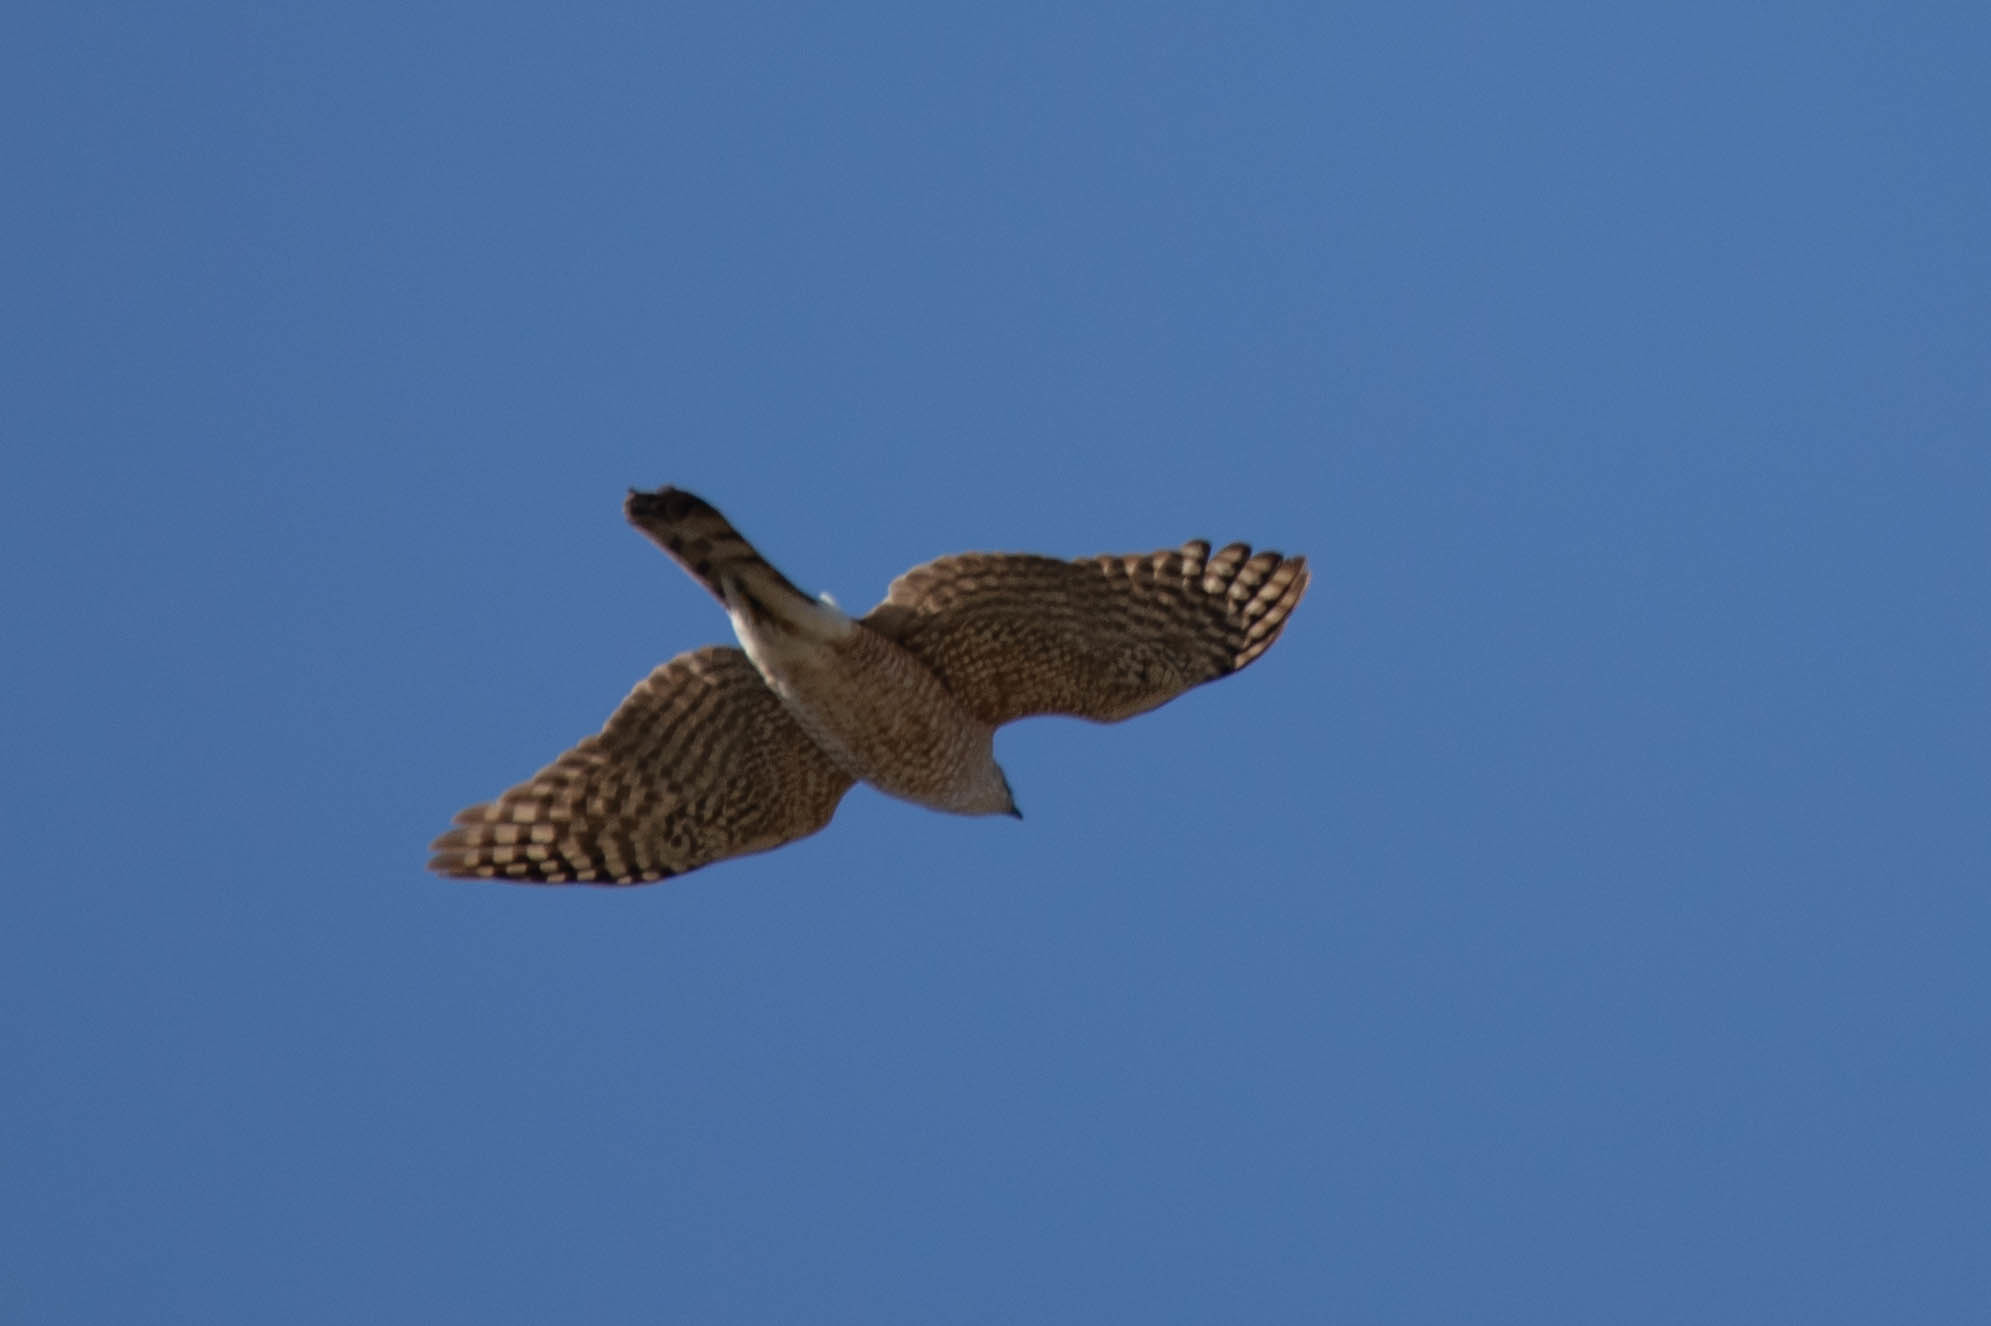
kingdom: Animalia
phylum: Chordata
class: Aves
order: Accipitriformes
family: Accipitridae
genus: Accipiter
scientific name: Accipiter cooperii
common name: Cooper's hawk
